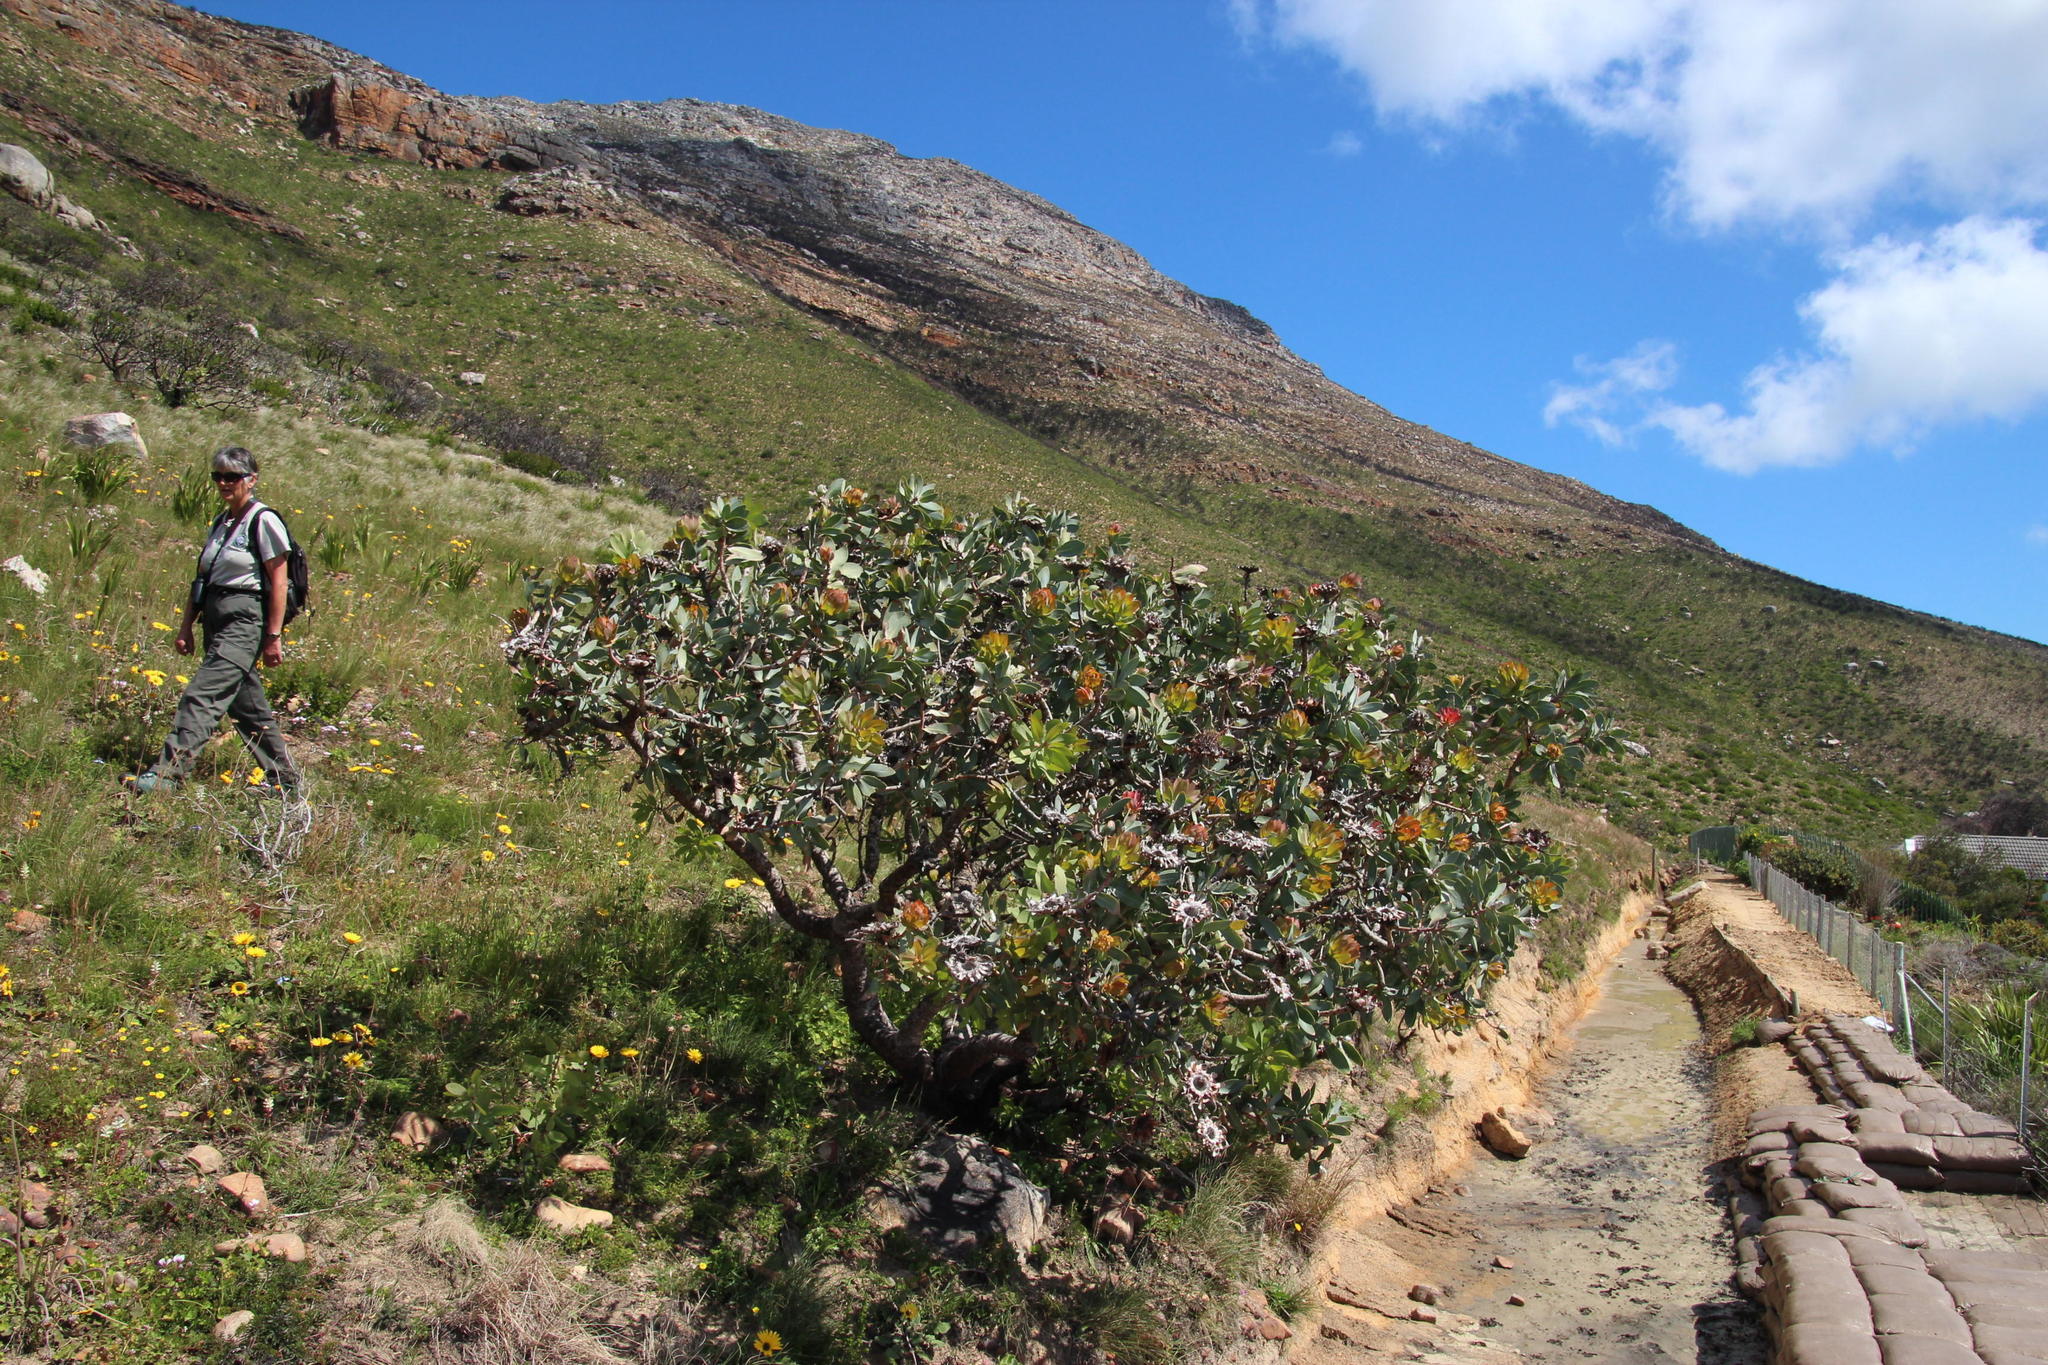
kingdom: Plantae
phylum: Tracheophyta
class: Magnoliopsida
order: Proteales
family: Proteaceae
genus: Protea
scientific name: Protea nitida
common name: Tree protea
